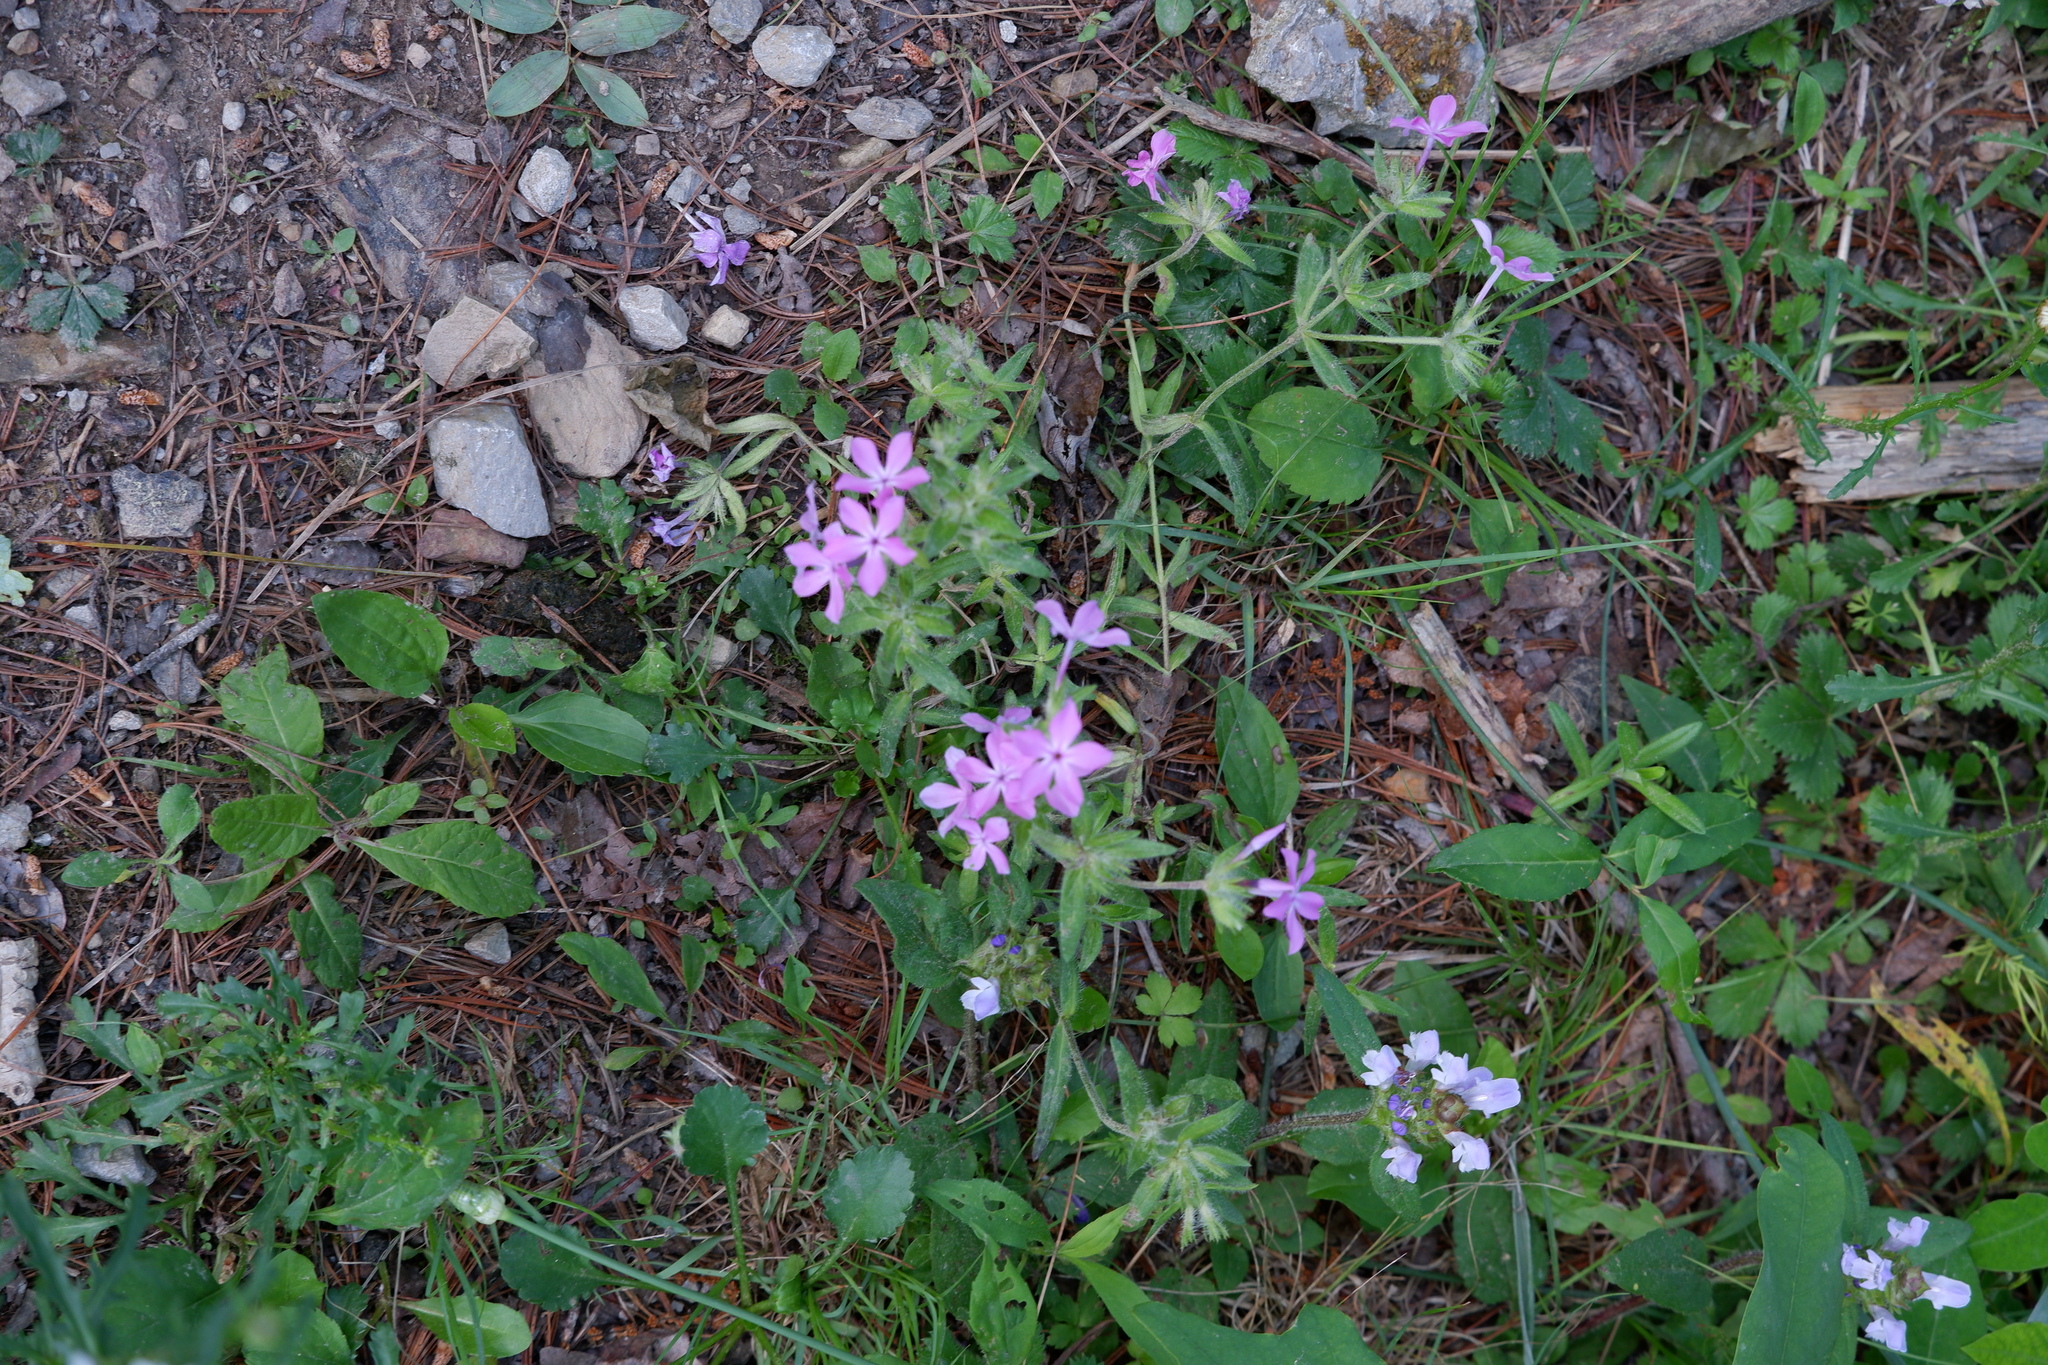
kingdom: Plantae
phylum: Tracheophyta
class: Magnoliopsida
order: Ericales
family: Polemoniaceae
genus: Phlox
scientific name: Phlox amoena
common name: Hairy phlox
